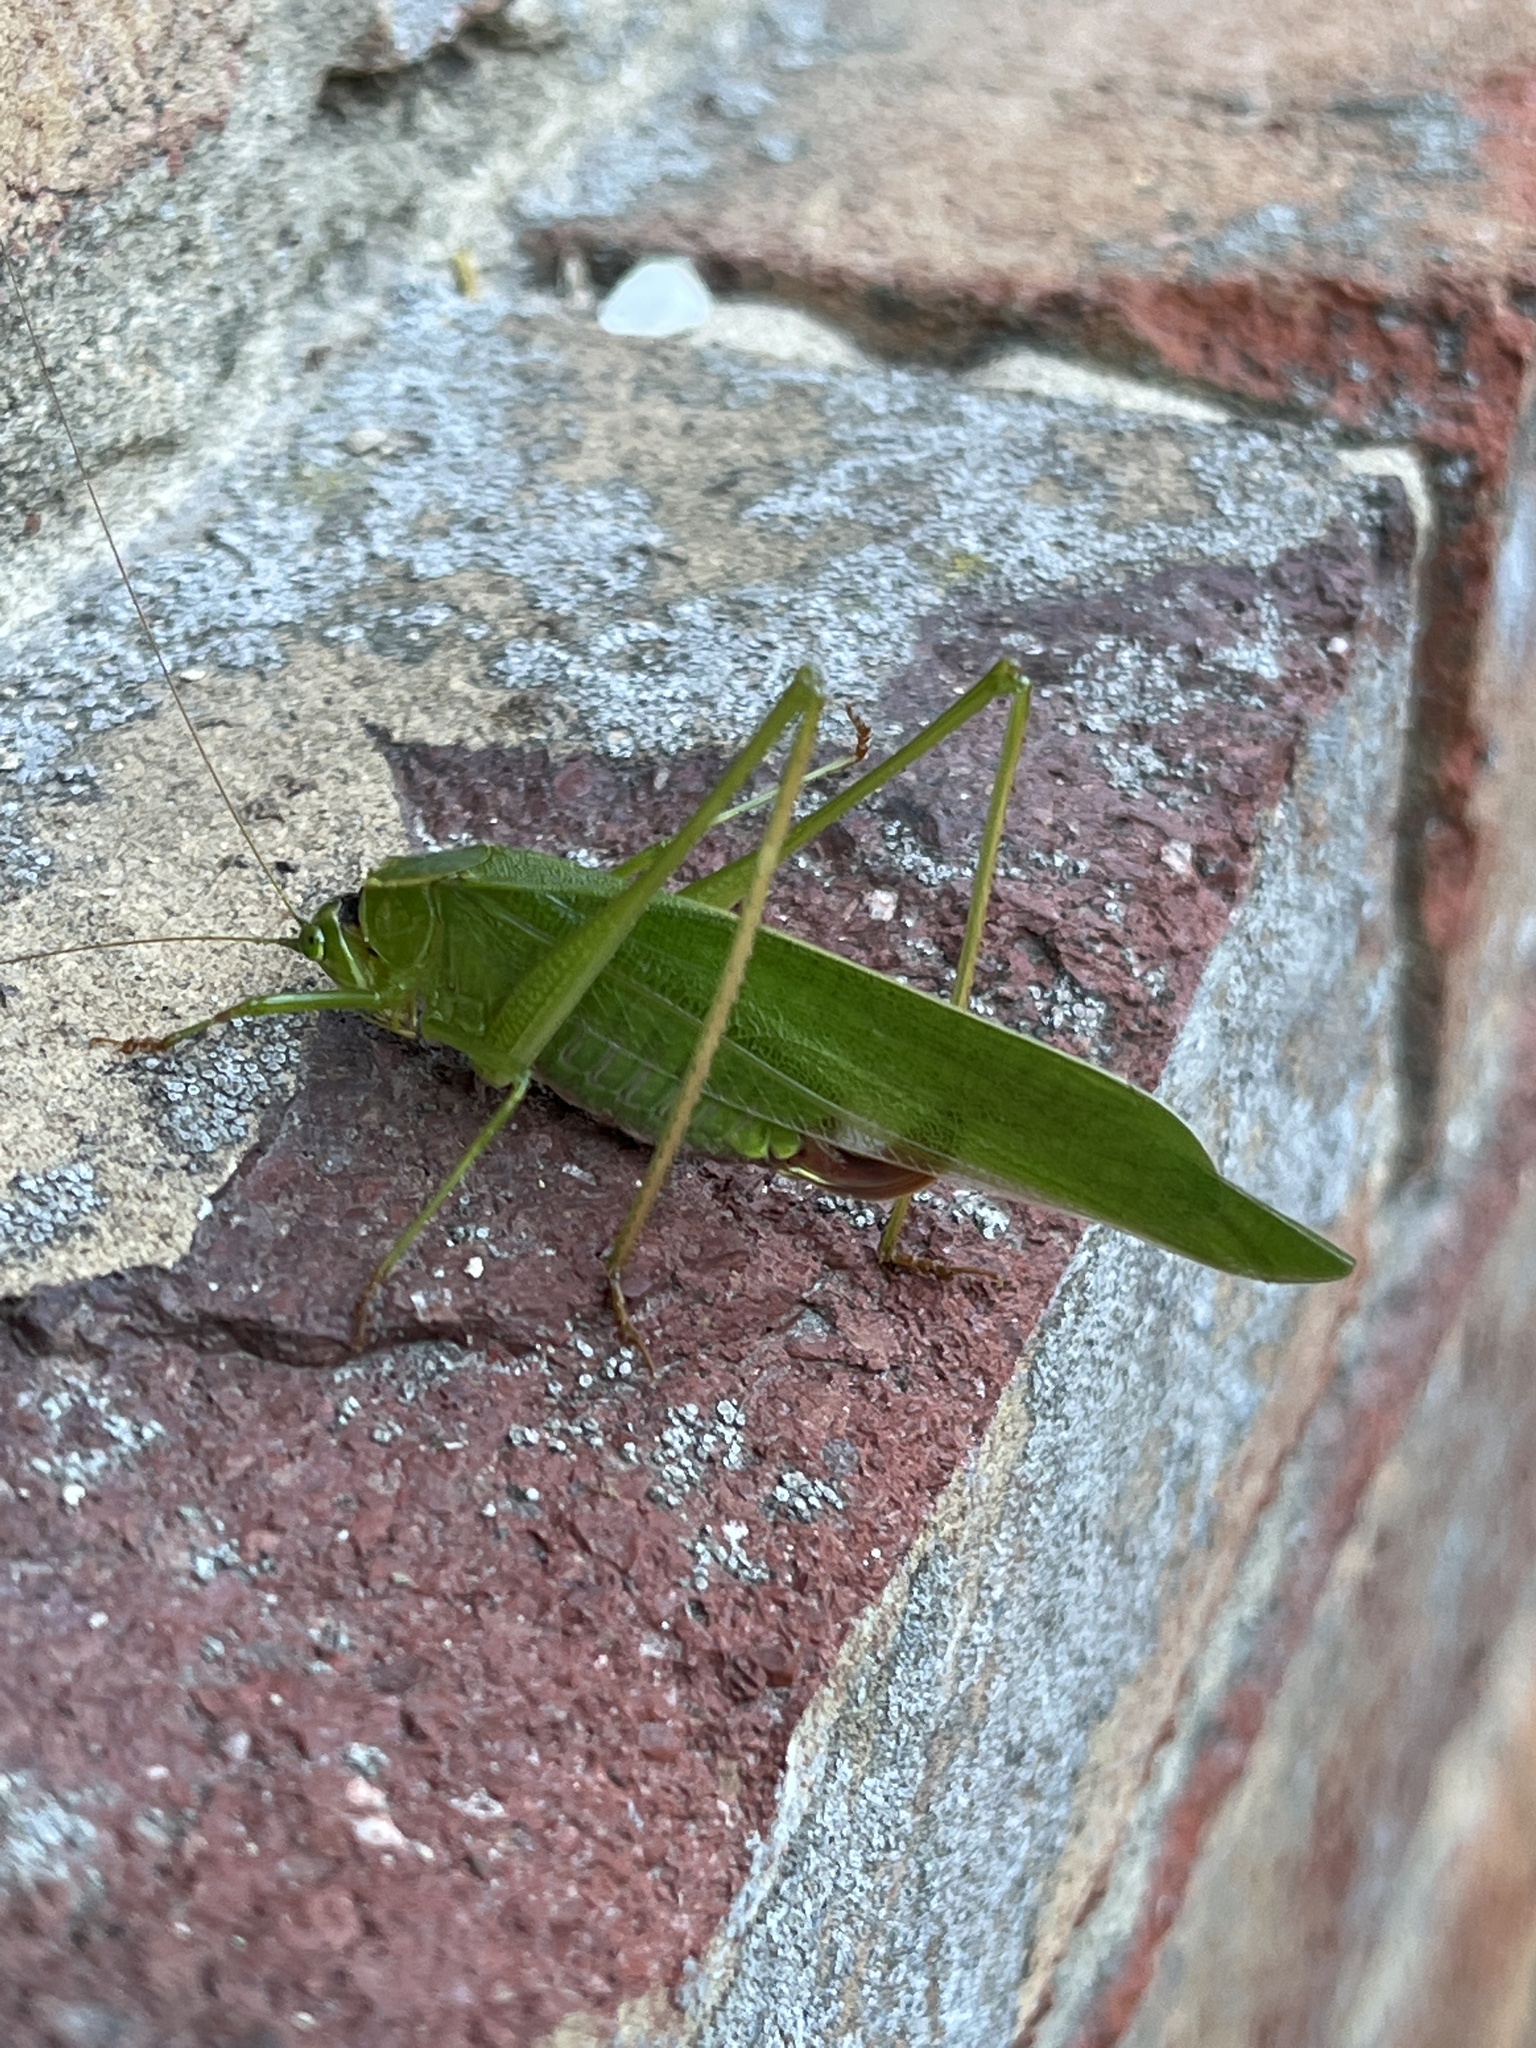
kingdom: Animalia
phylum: Arthropoda
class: Insecta
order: Orthoptera
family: Tettigoniidae
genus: Scudderia
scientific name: Scudderia
